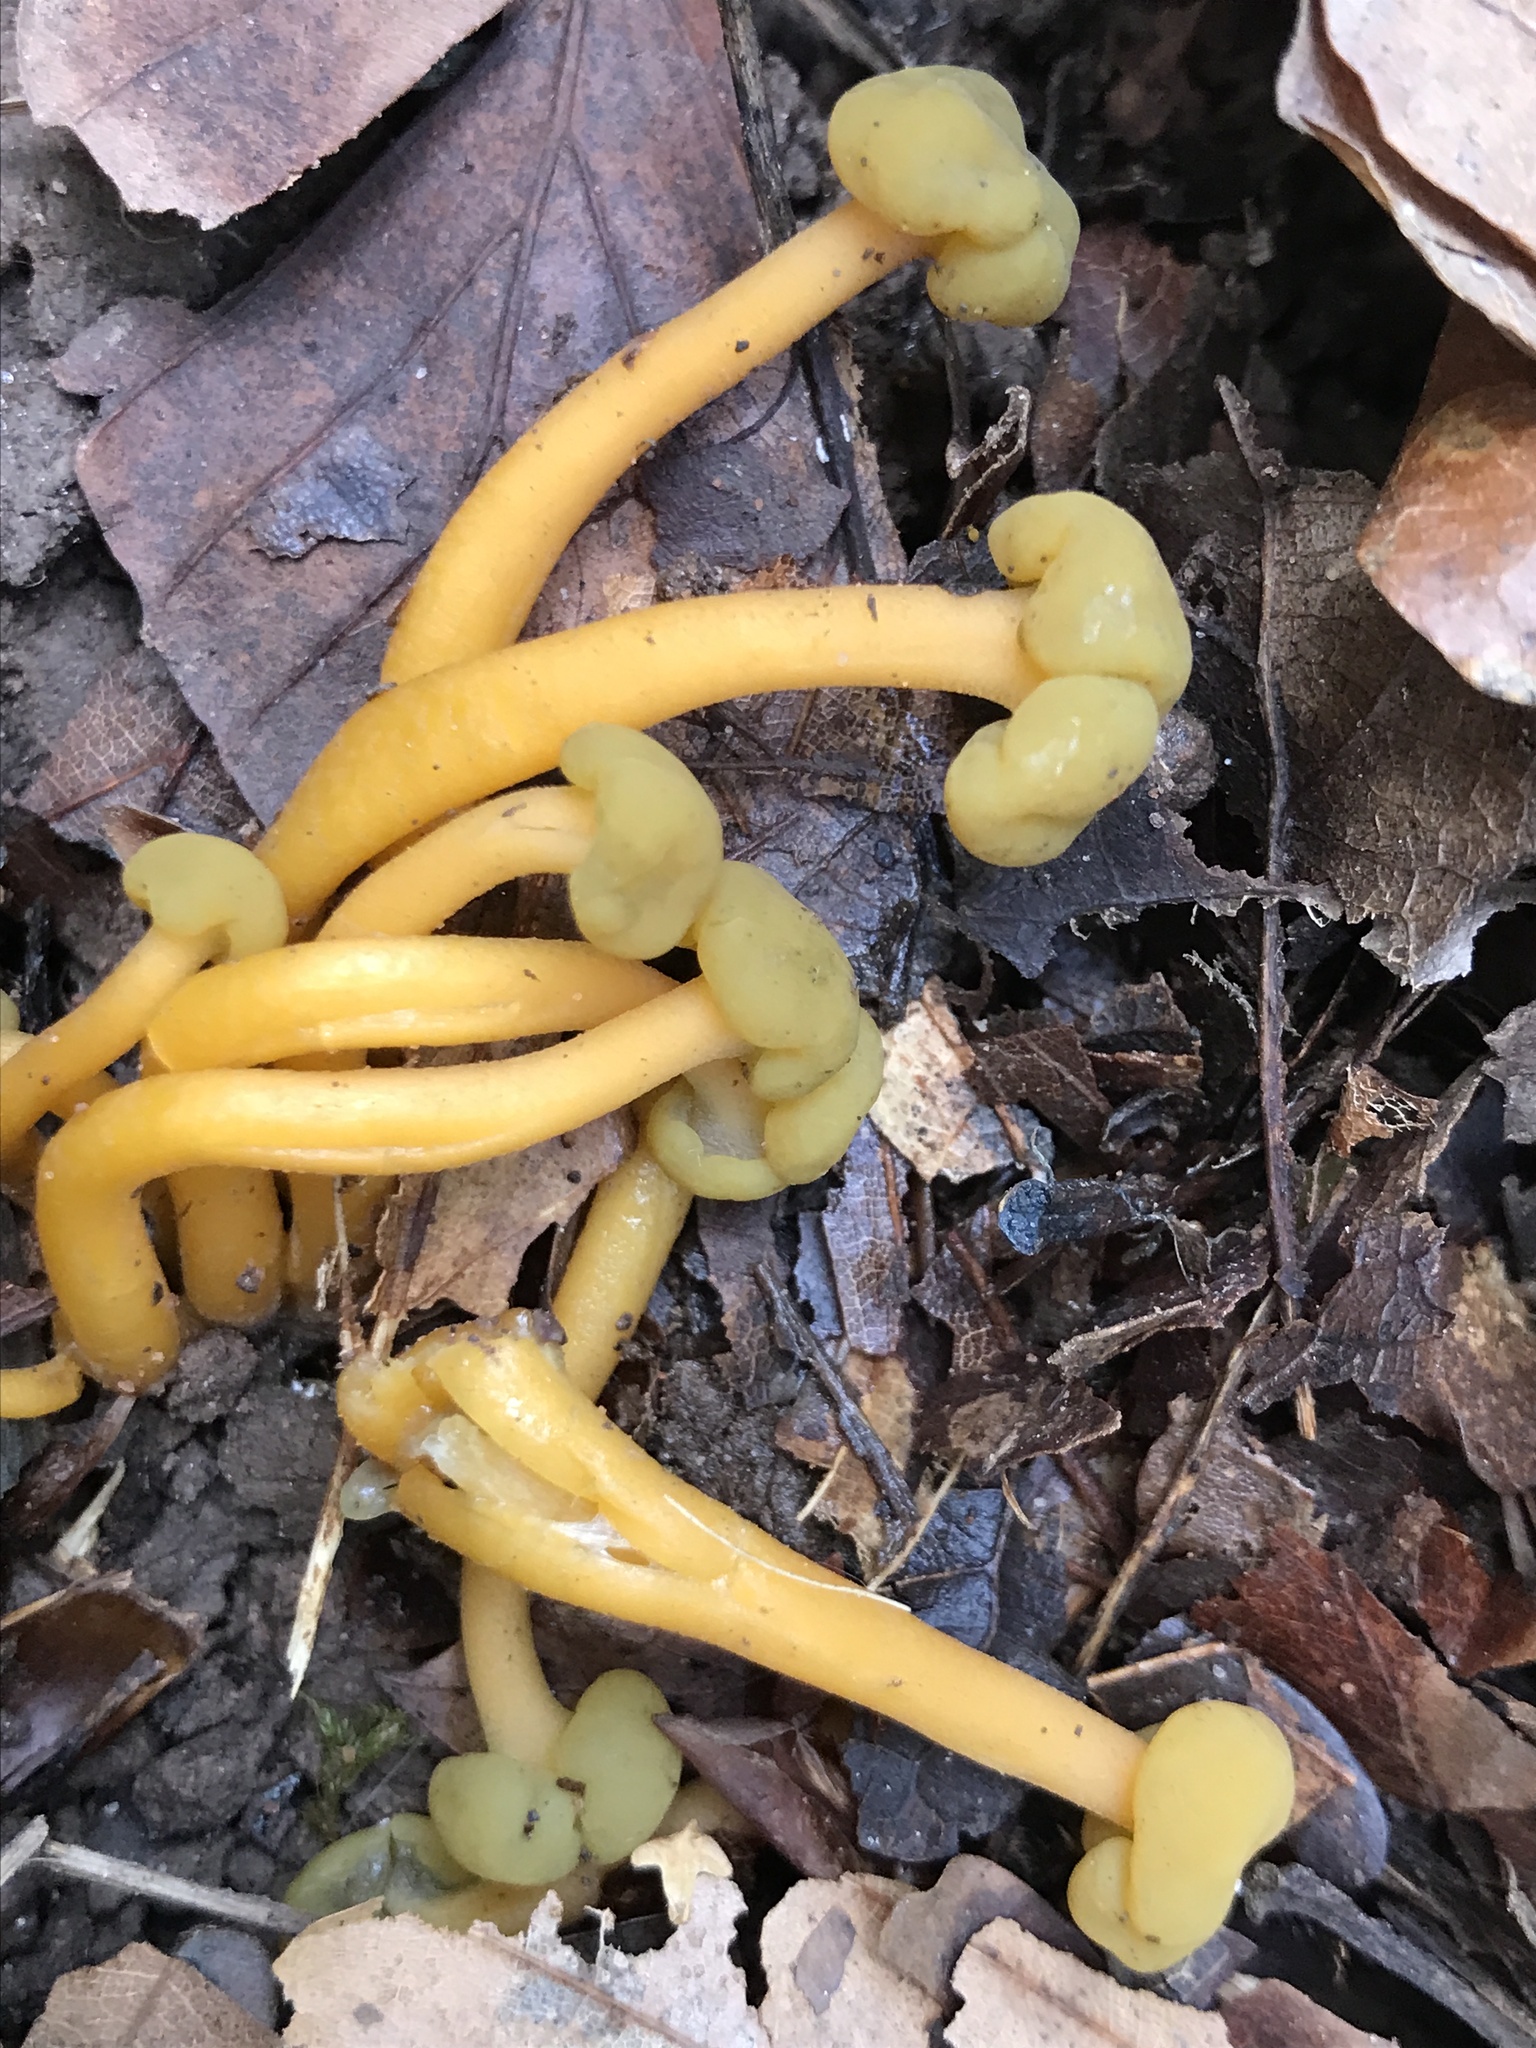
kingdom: Fungi
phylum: Ascomycota
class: Leotiomycetes
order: Leotiales
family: Leotiaceae
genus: Leotia
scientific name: Leotia lubrica
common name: Jellybaby
